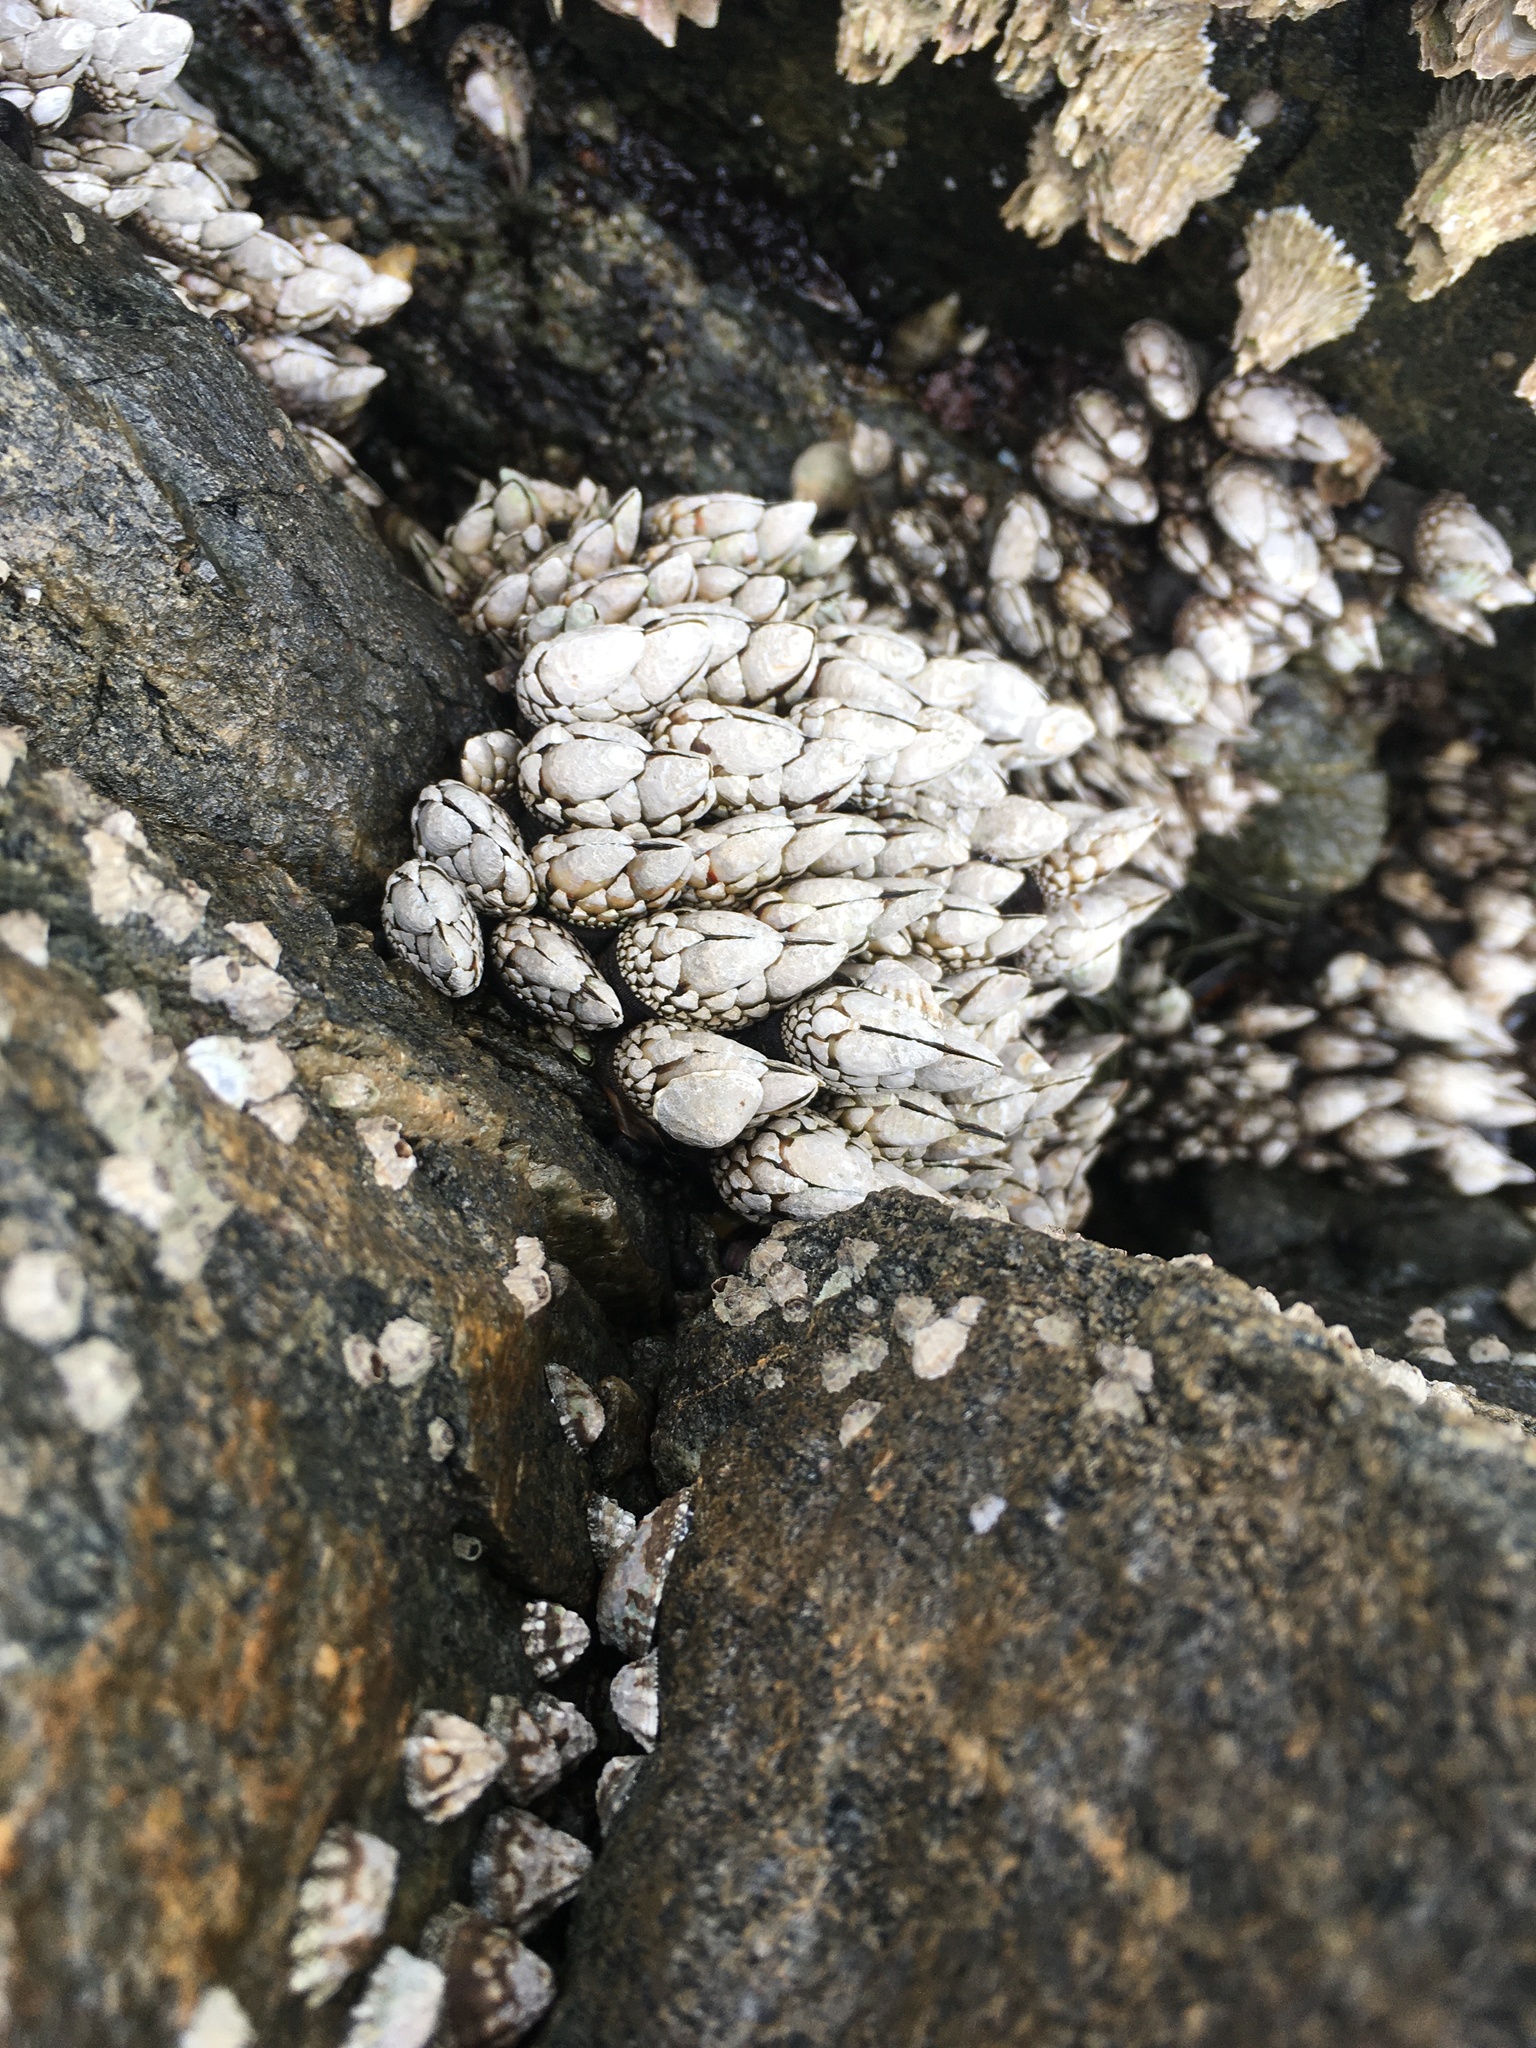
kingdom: Animalia
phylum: Arthropoda
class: Maxillopoda
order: Pedunculata
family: Pollicipedidae
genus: Pollicipes
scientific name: Pollicipes polymerus
